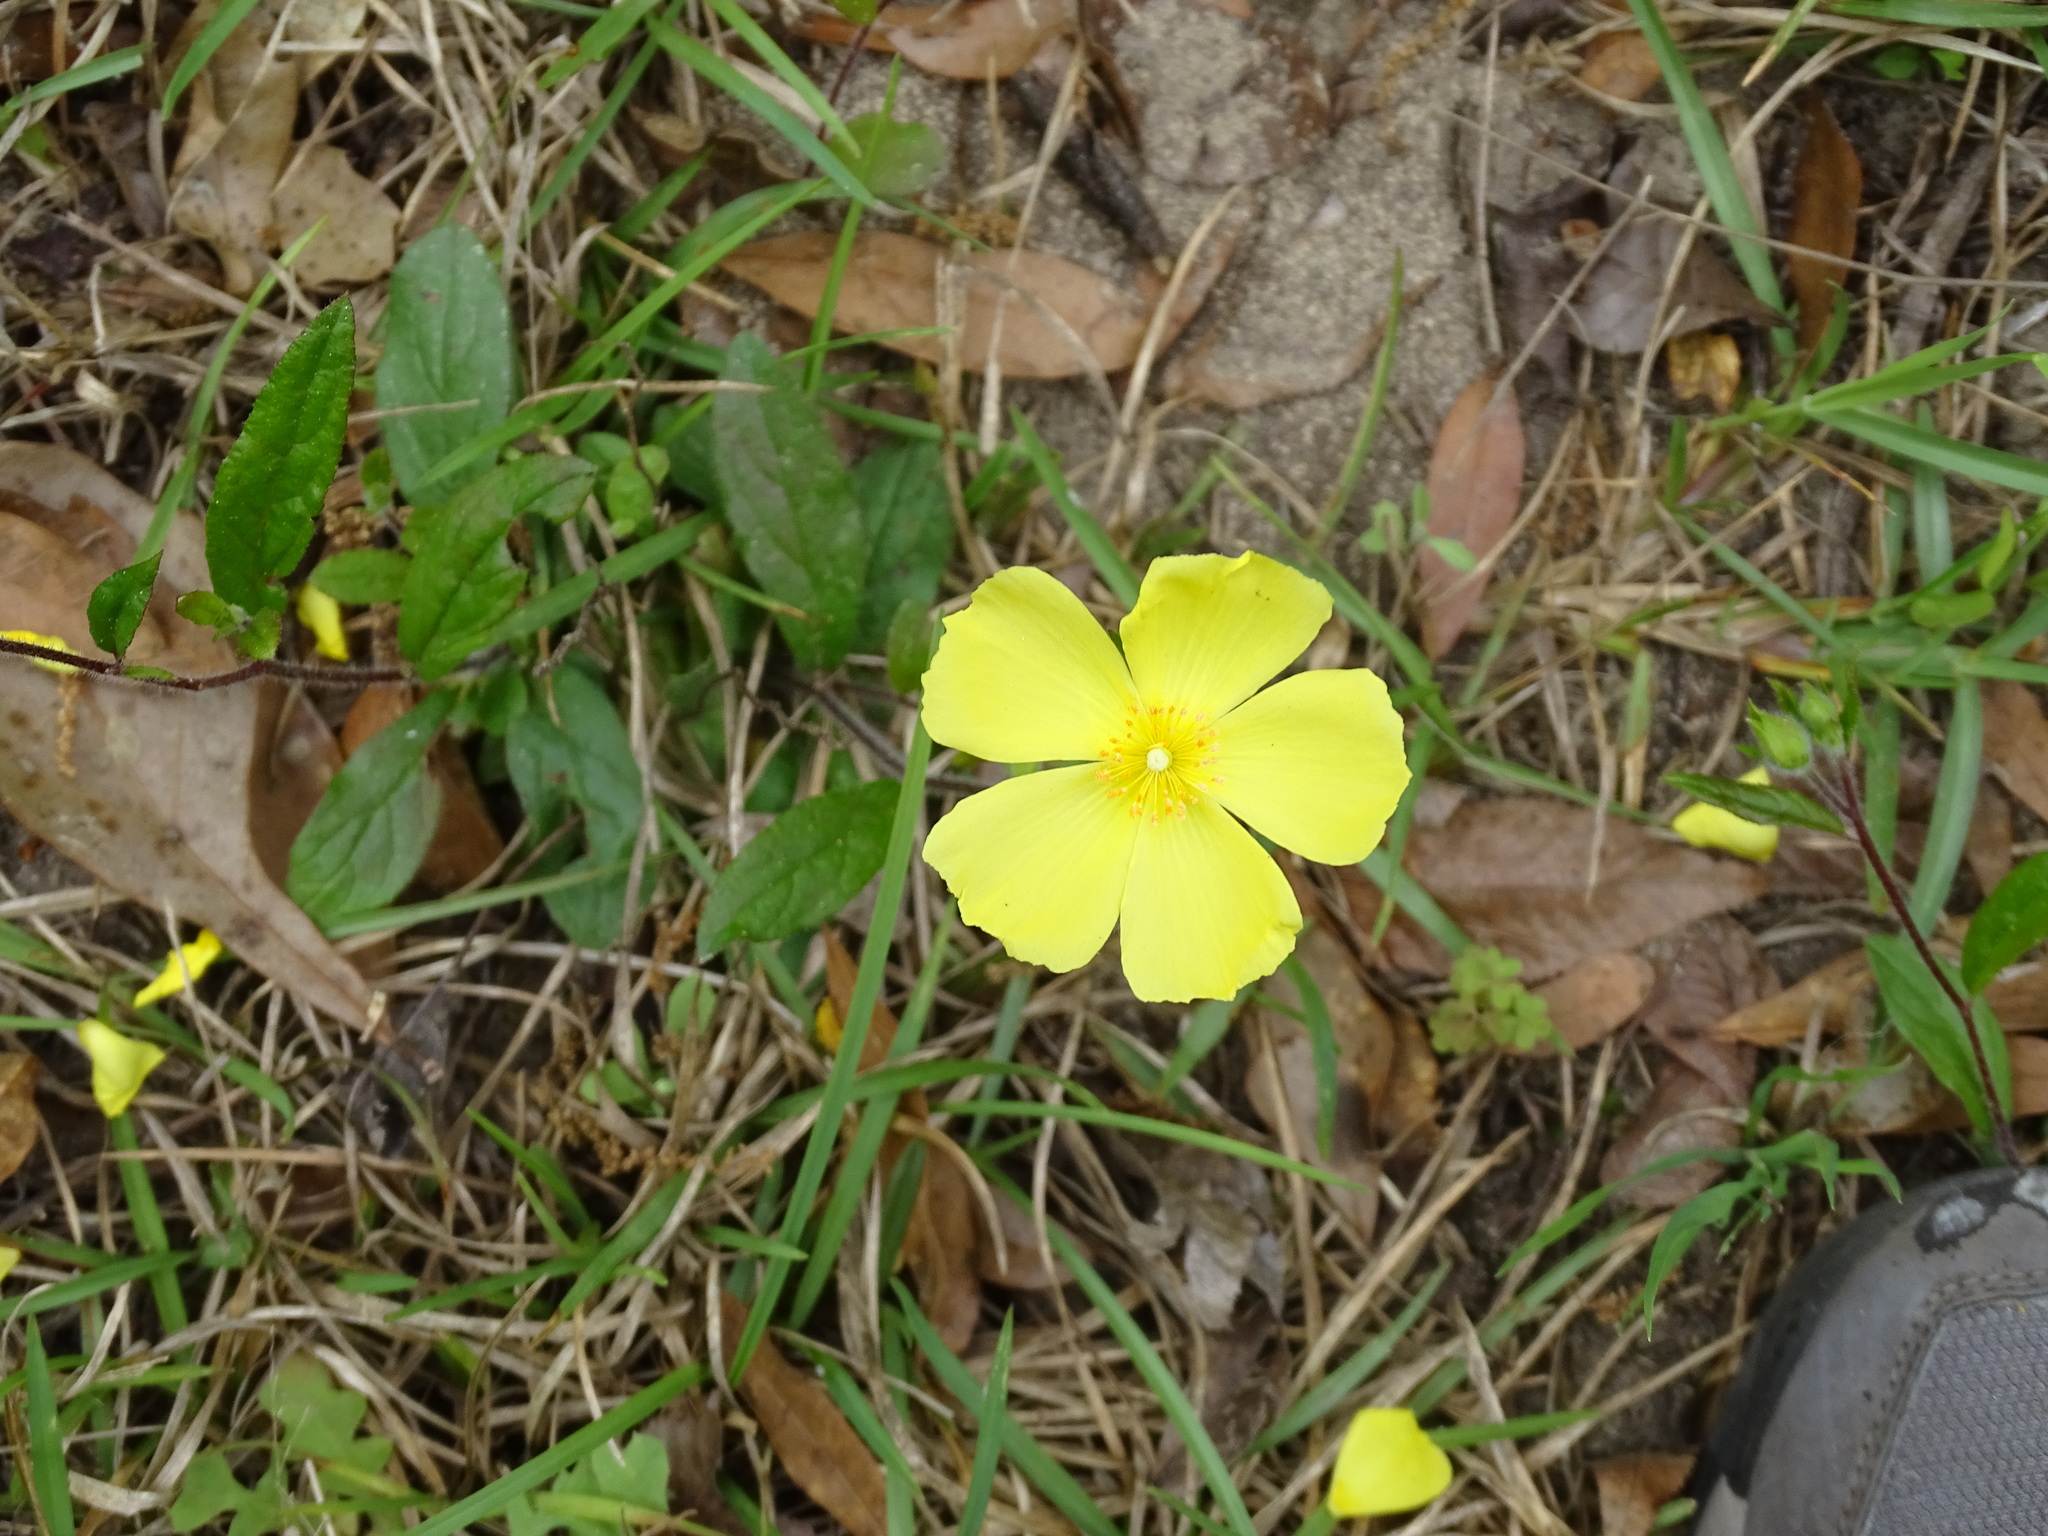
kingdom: Plantae
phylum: Tracheophyta
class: Magnoliopsida
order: Malvales
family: Cistaceae
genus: Crocanthemum
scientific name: Crocanthemum carolinianum
